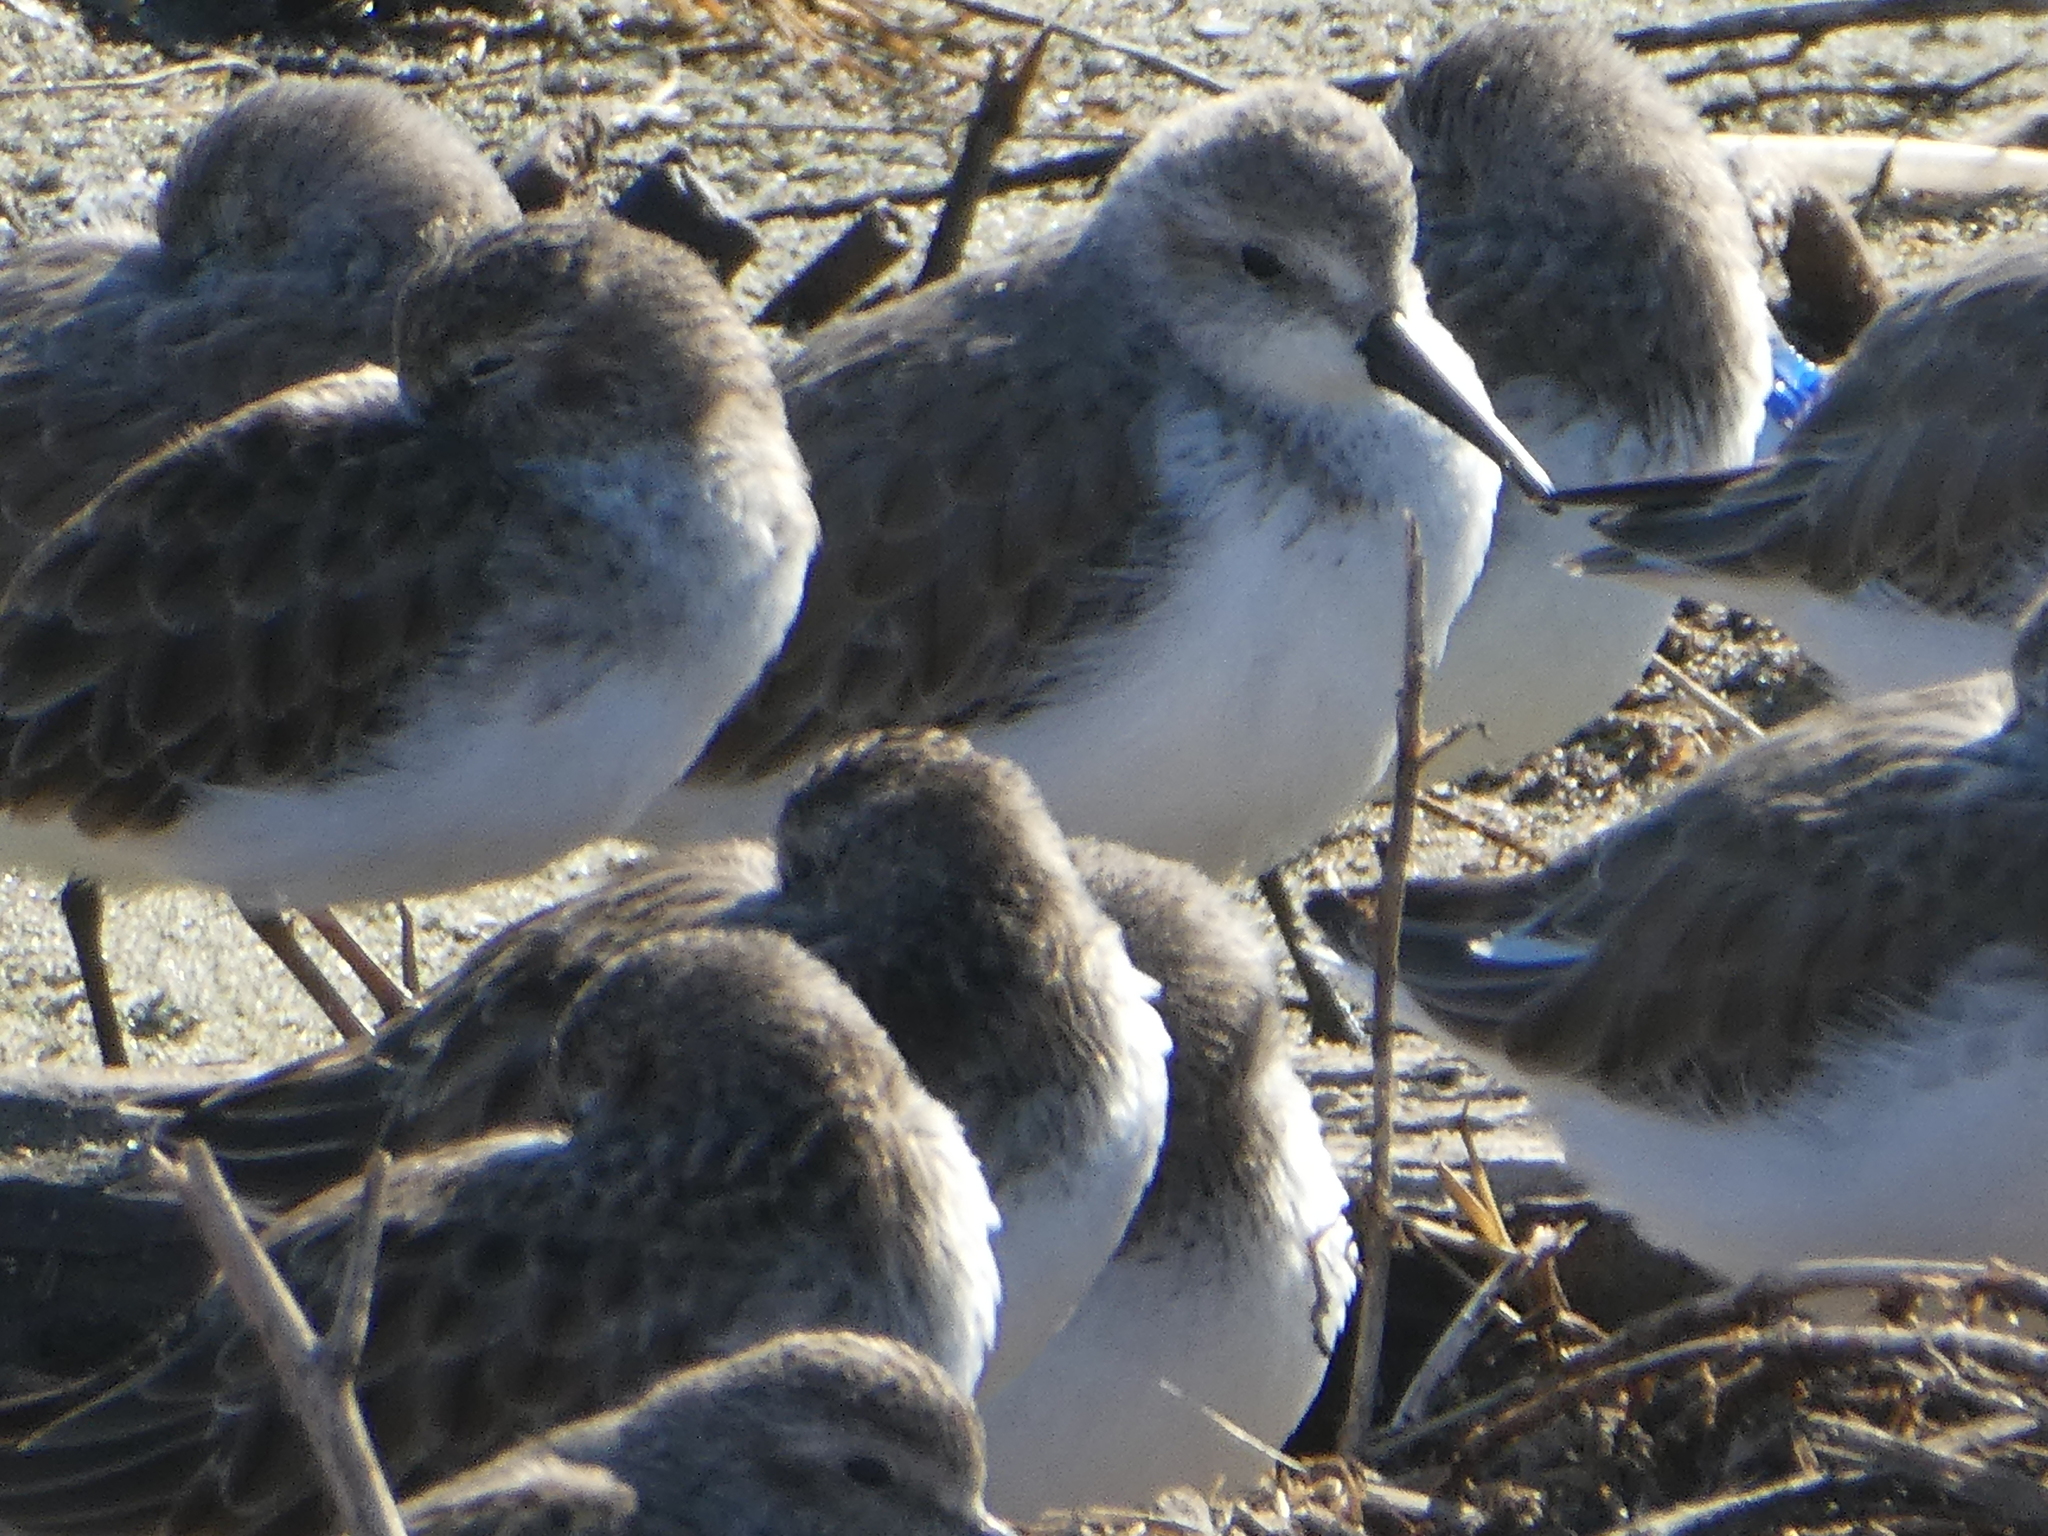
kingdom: Animalia
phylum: Chordata
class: Aves
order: Charadriiformes
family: Scolopacidae
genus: Calidris
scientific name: Calidris mauri
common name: Western sandpiper
